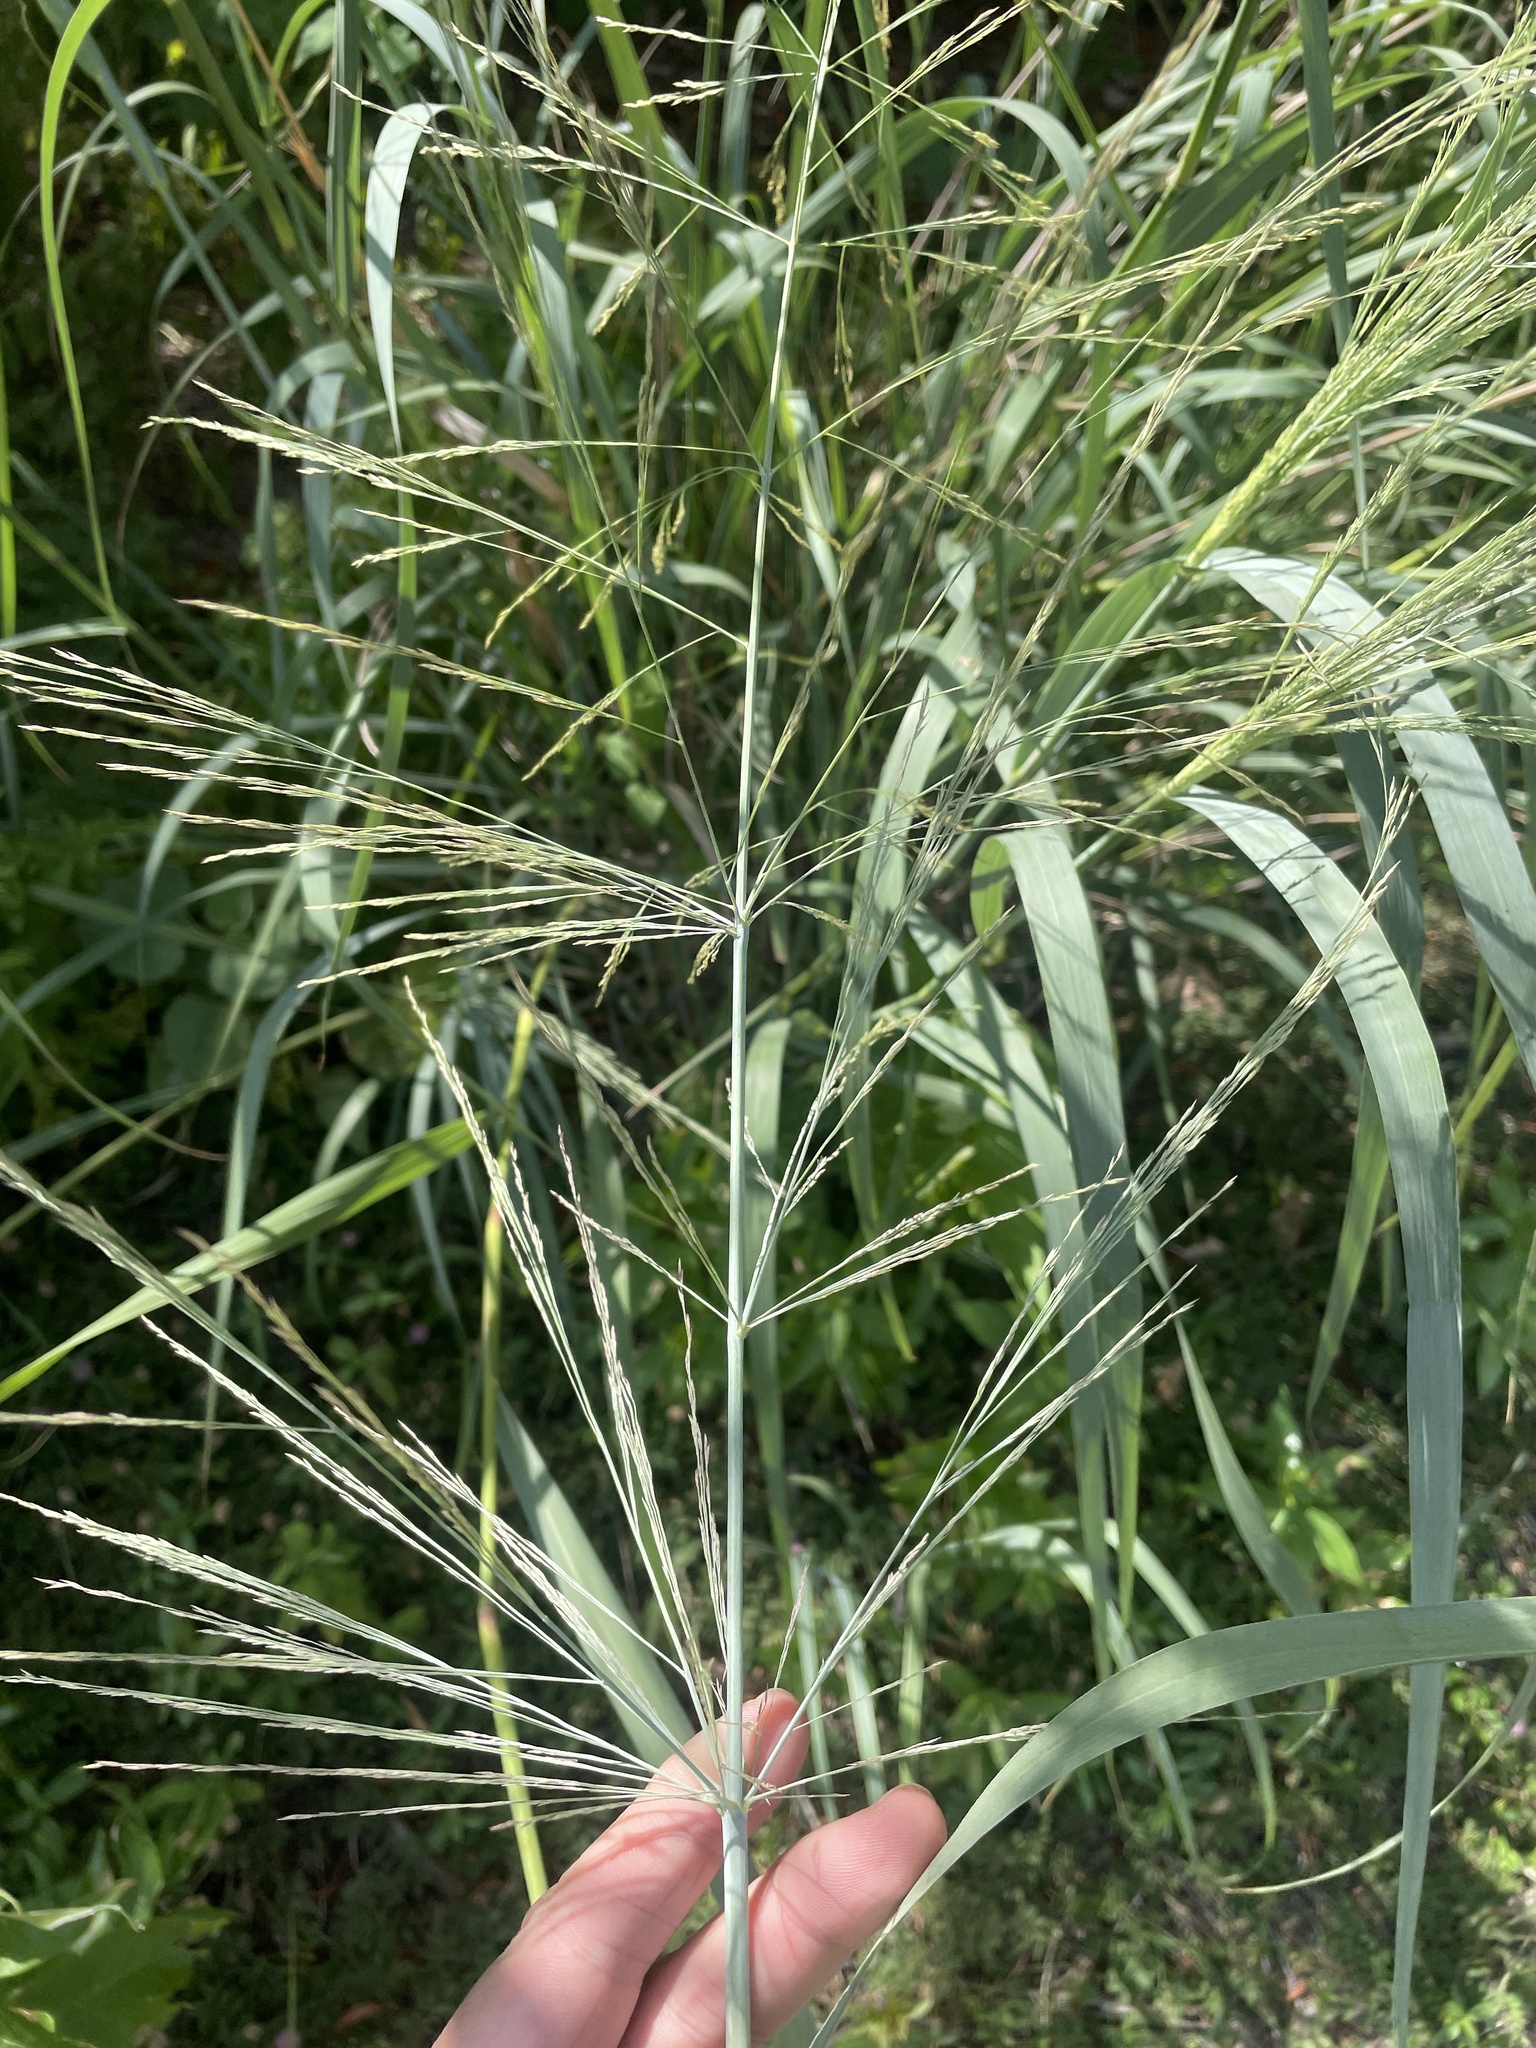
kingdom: Plantae
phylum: Tracheophyta
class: Liliopsida
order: Poales
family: Poaceae
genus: Panicum
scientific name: Panicum virgatum
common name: Switchgrass
